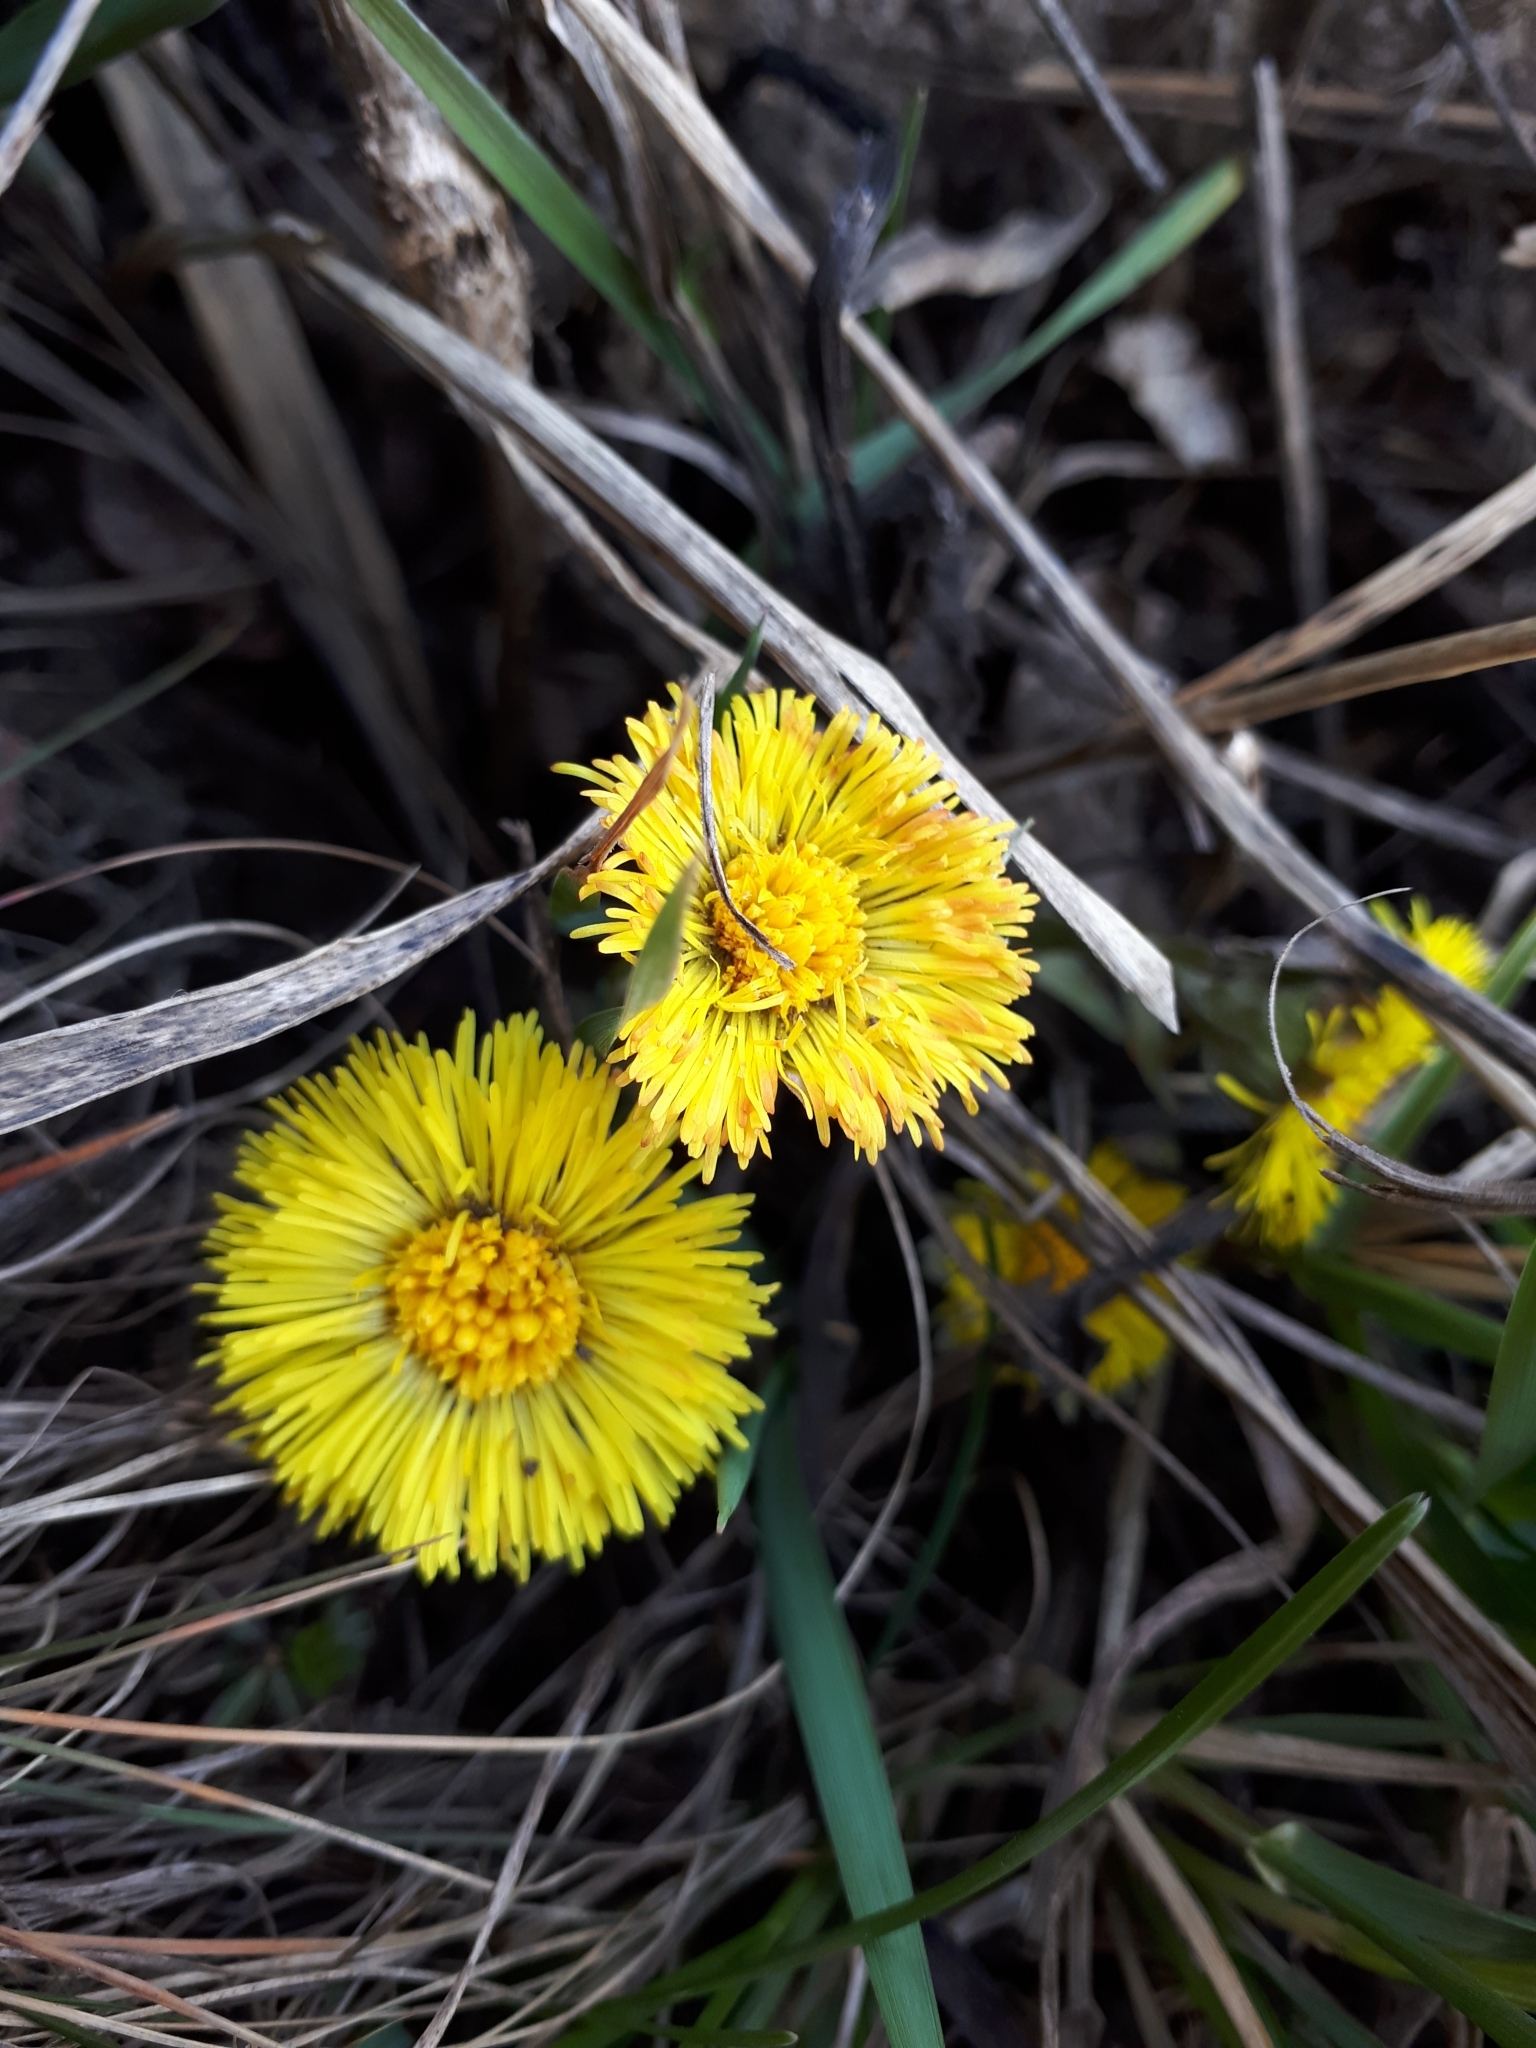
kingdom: Plantae
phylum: Tracheophyta
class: Magnoliopsida
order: Asterales
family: Asteraceae
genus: Tussilago
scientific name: Tussilago farfara
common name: Coltsfoot
